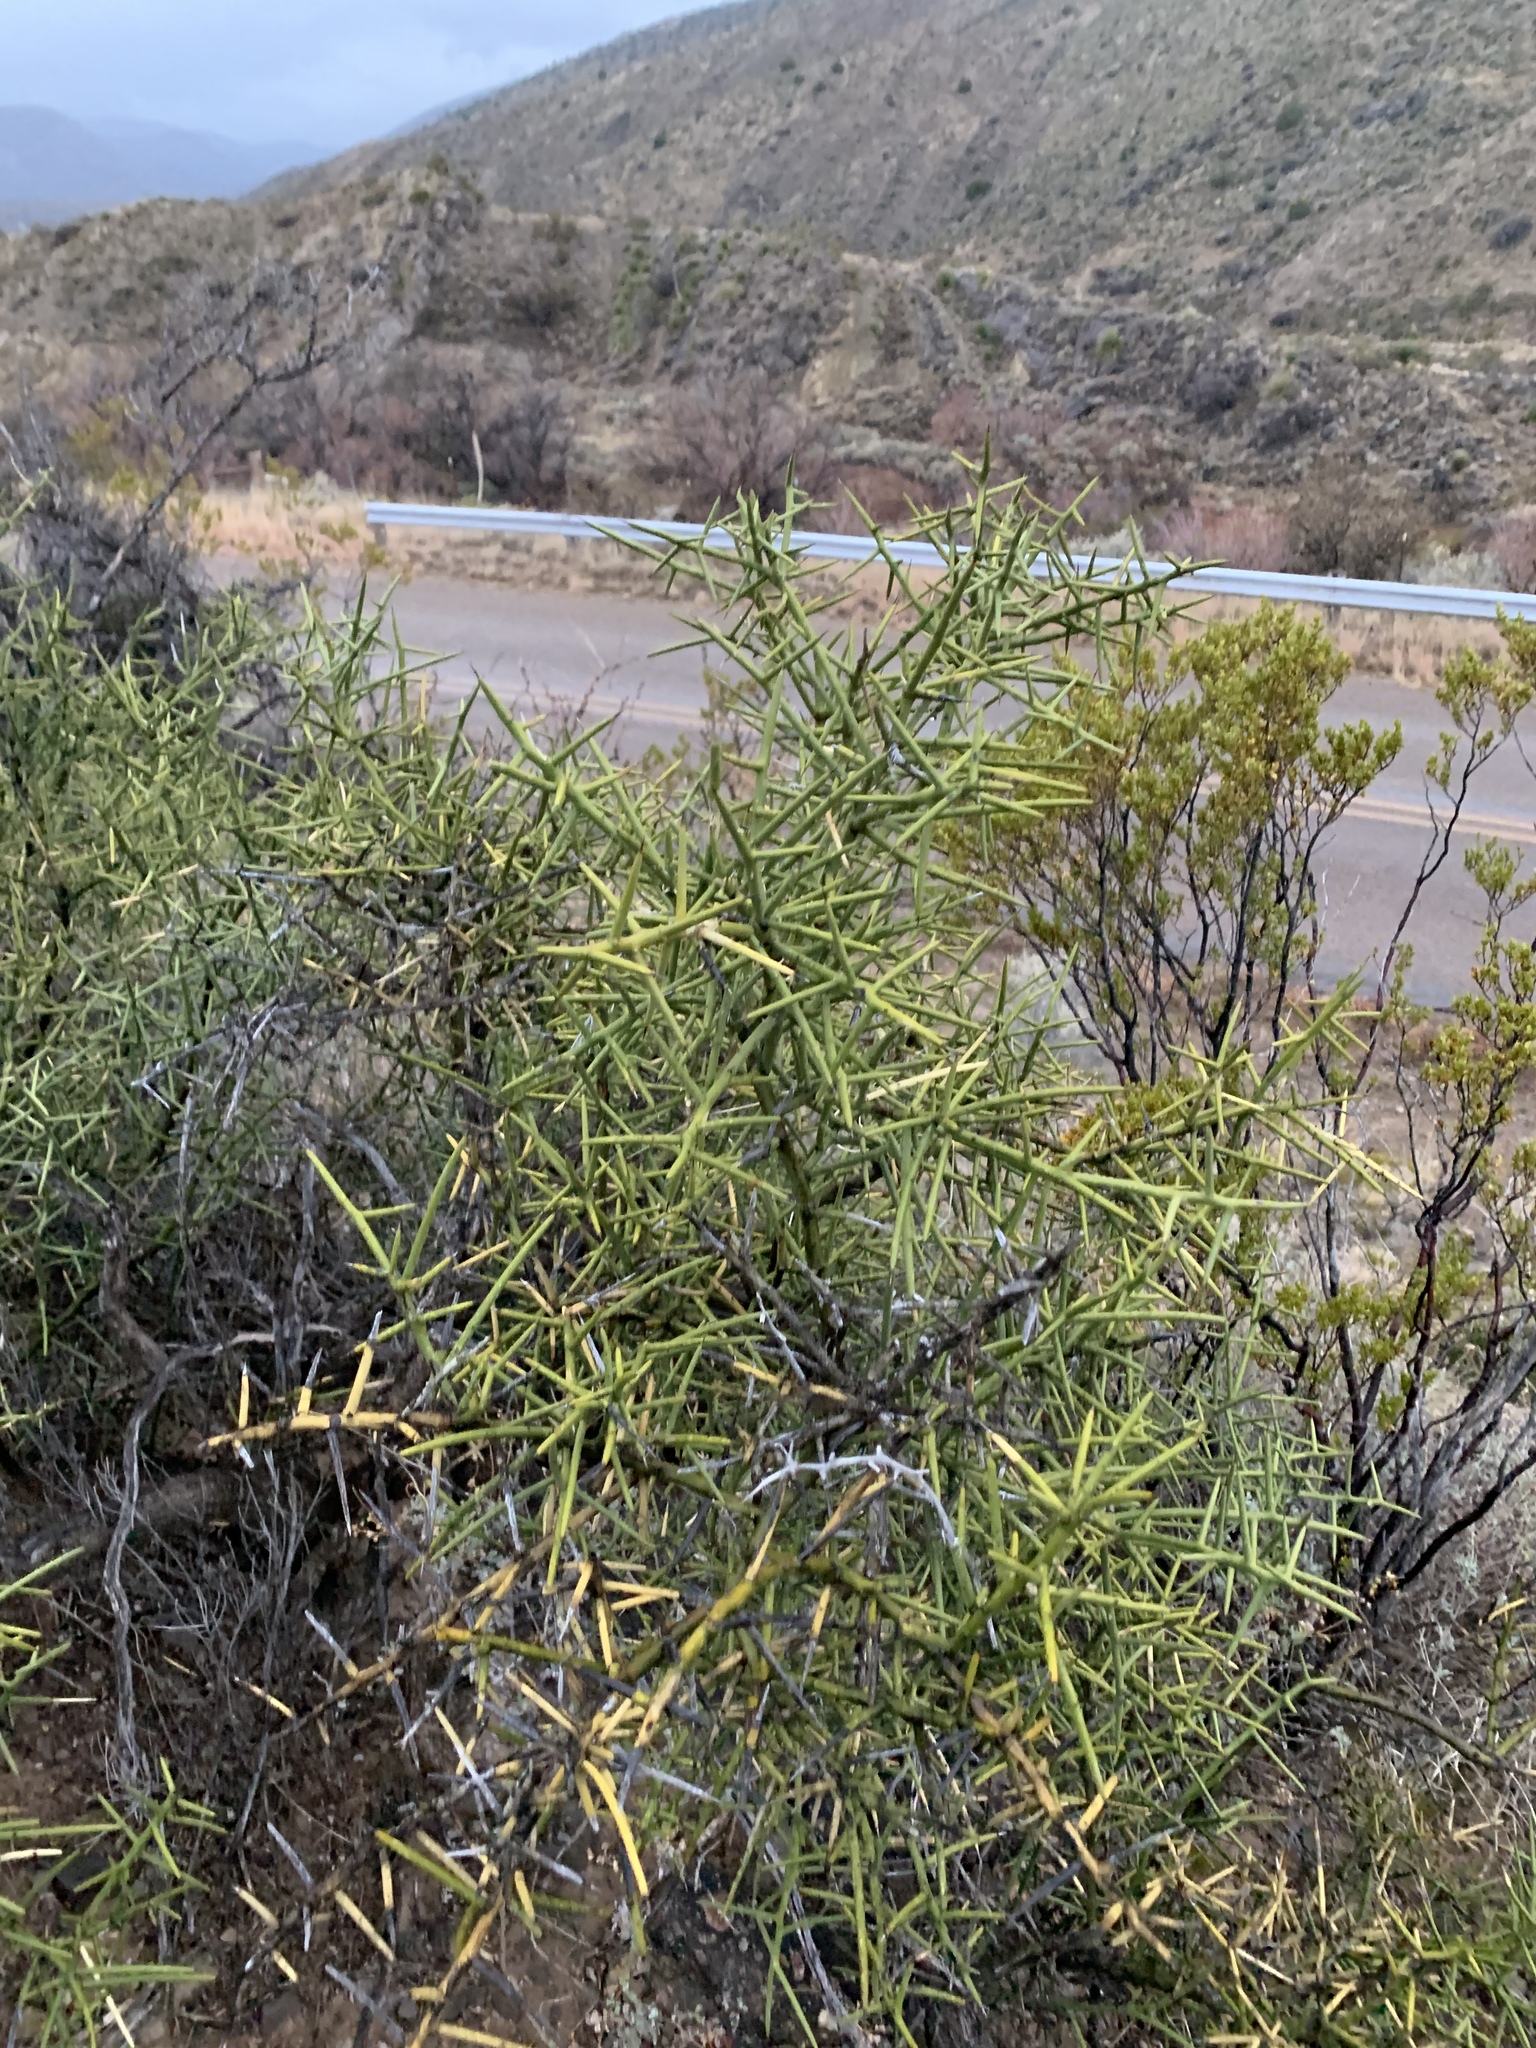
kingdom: Plantae
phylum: Tracheophyta
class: Magnoliopsida
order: Brassicales
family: Koeberliniaceae
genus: Koeberlinia
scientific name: Koeberlinia spinosa
